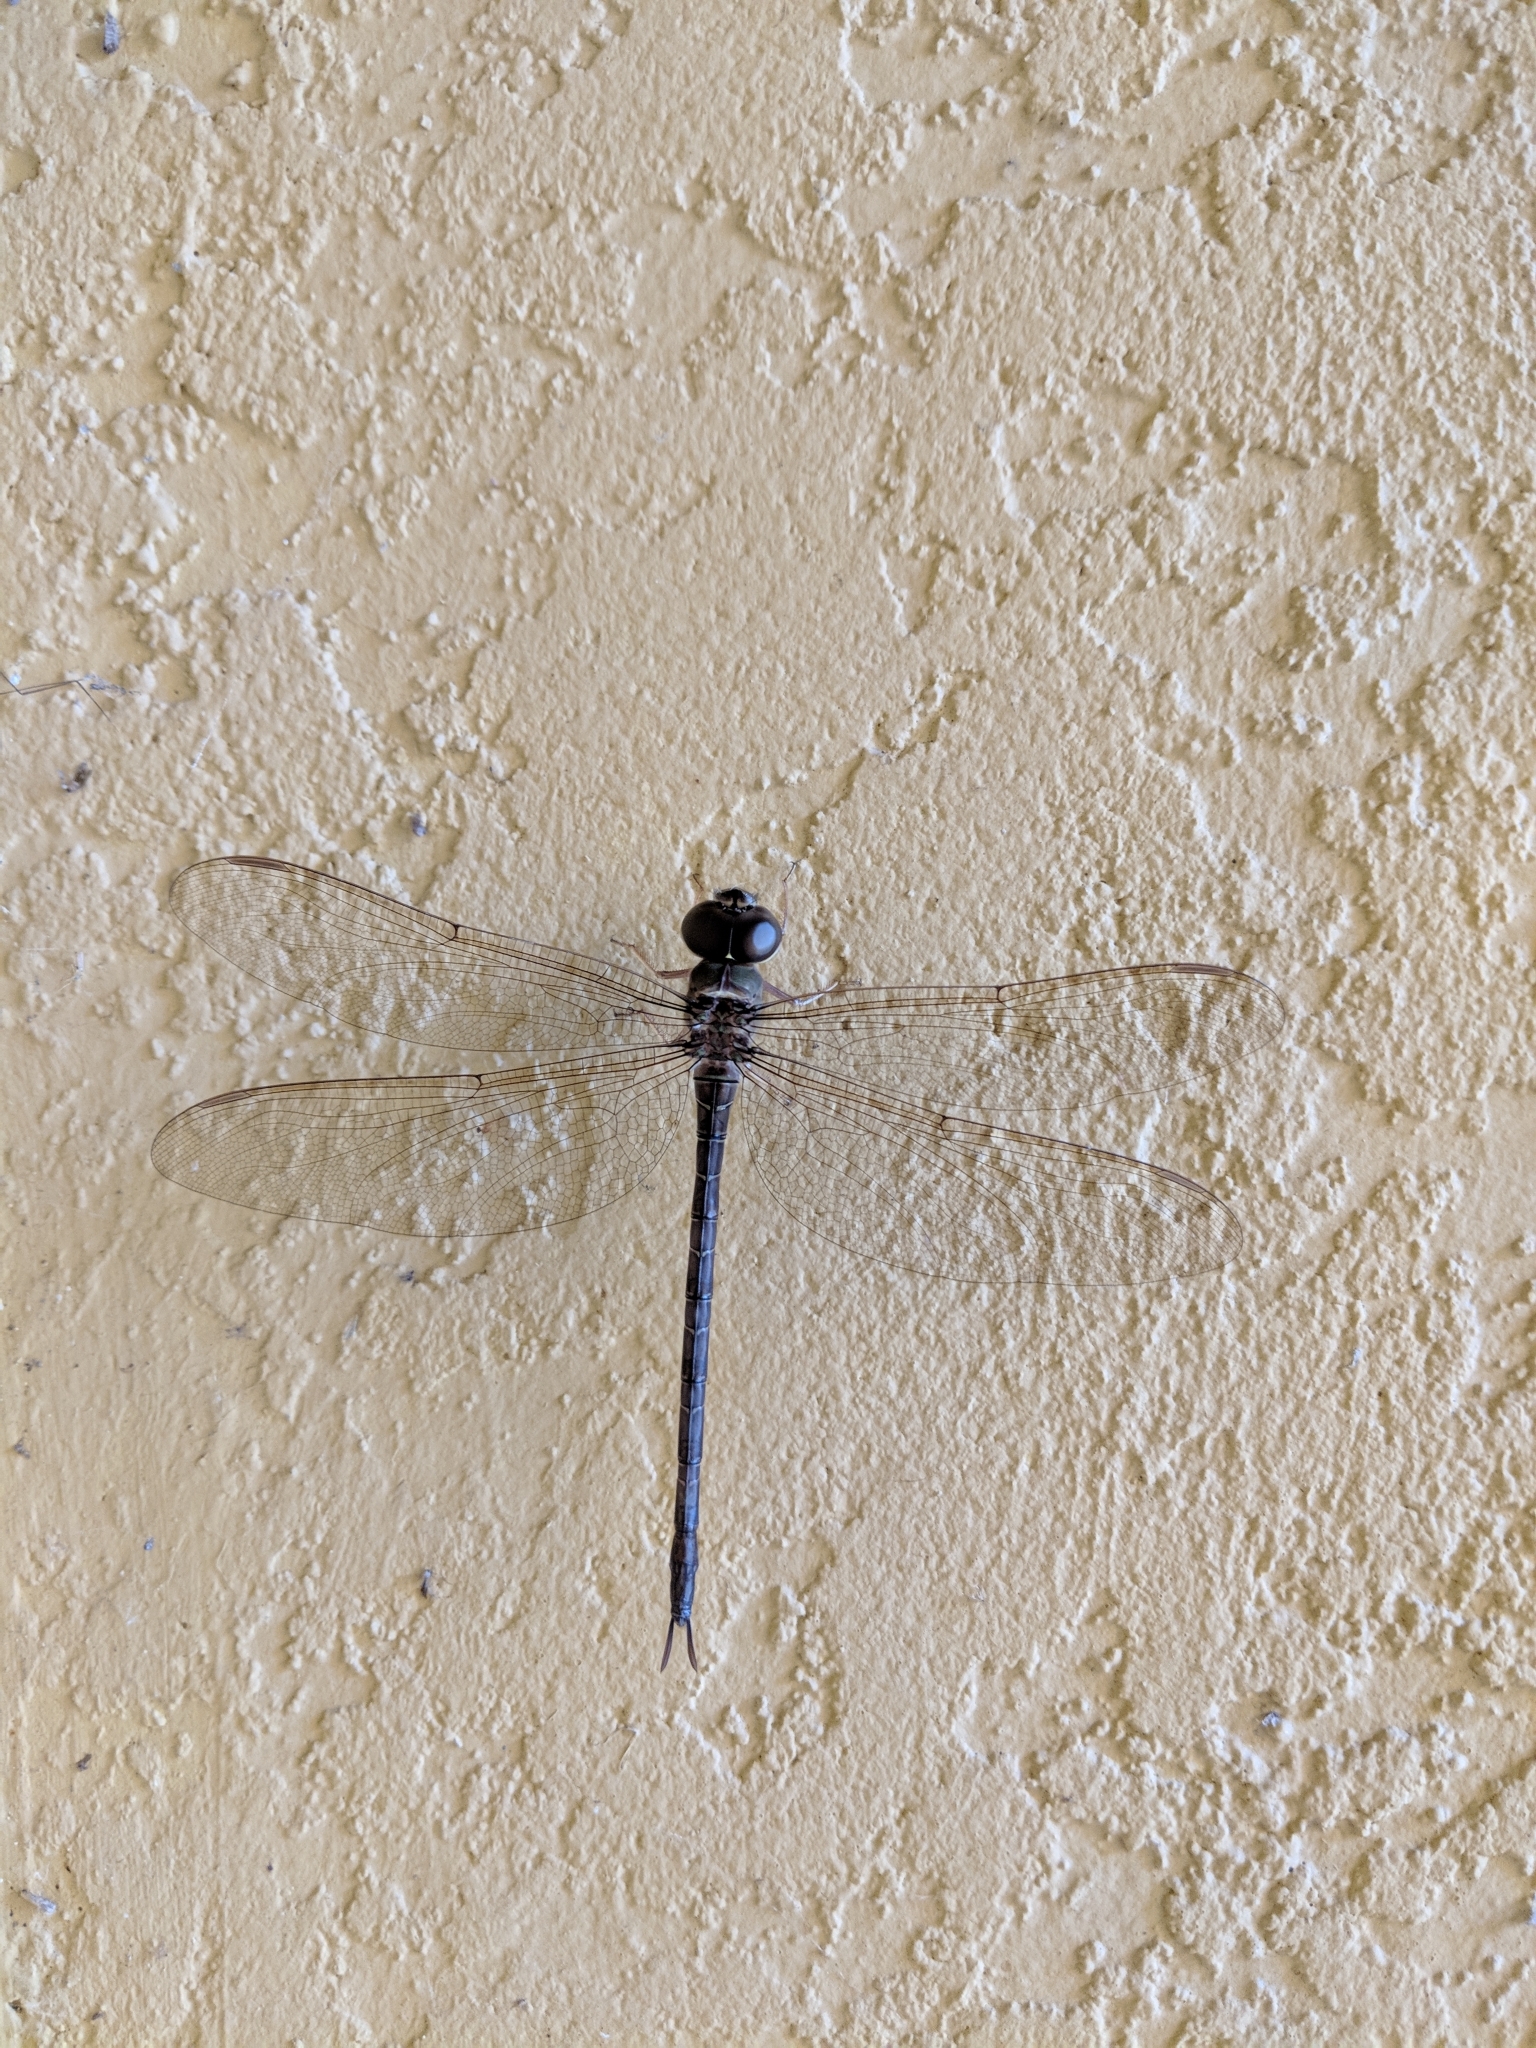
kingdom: Animalia
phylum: Arthropoda
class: Insecta
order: Odonata
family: Aeshnidae
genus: Gynacantha
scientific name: Gynacantha nervosa
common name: Twilight darner
